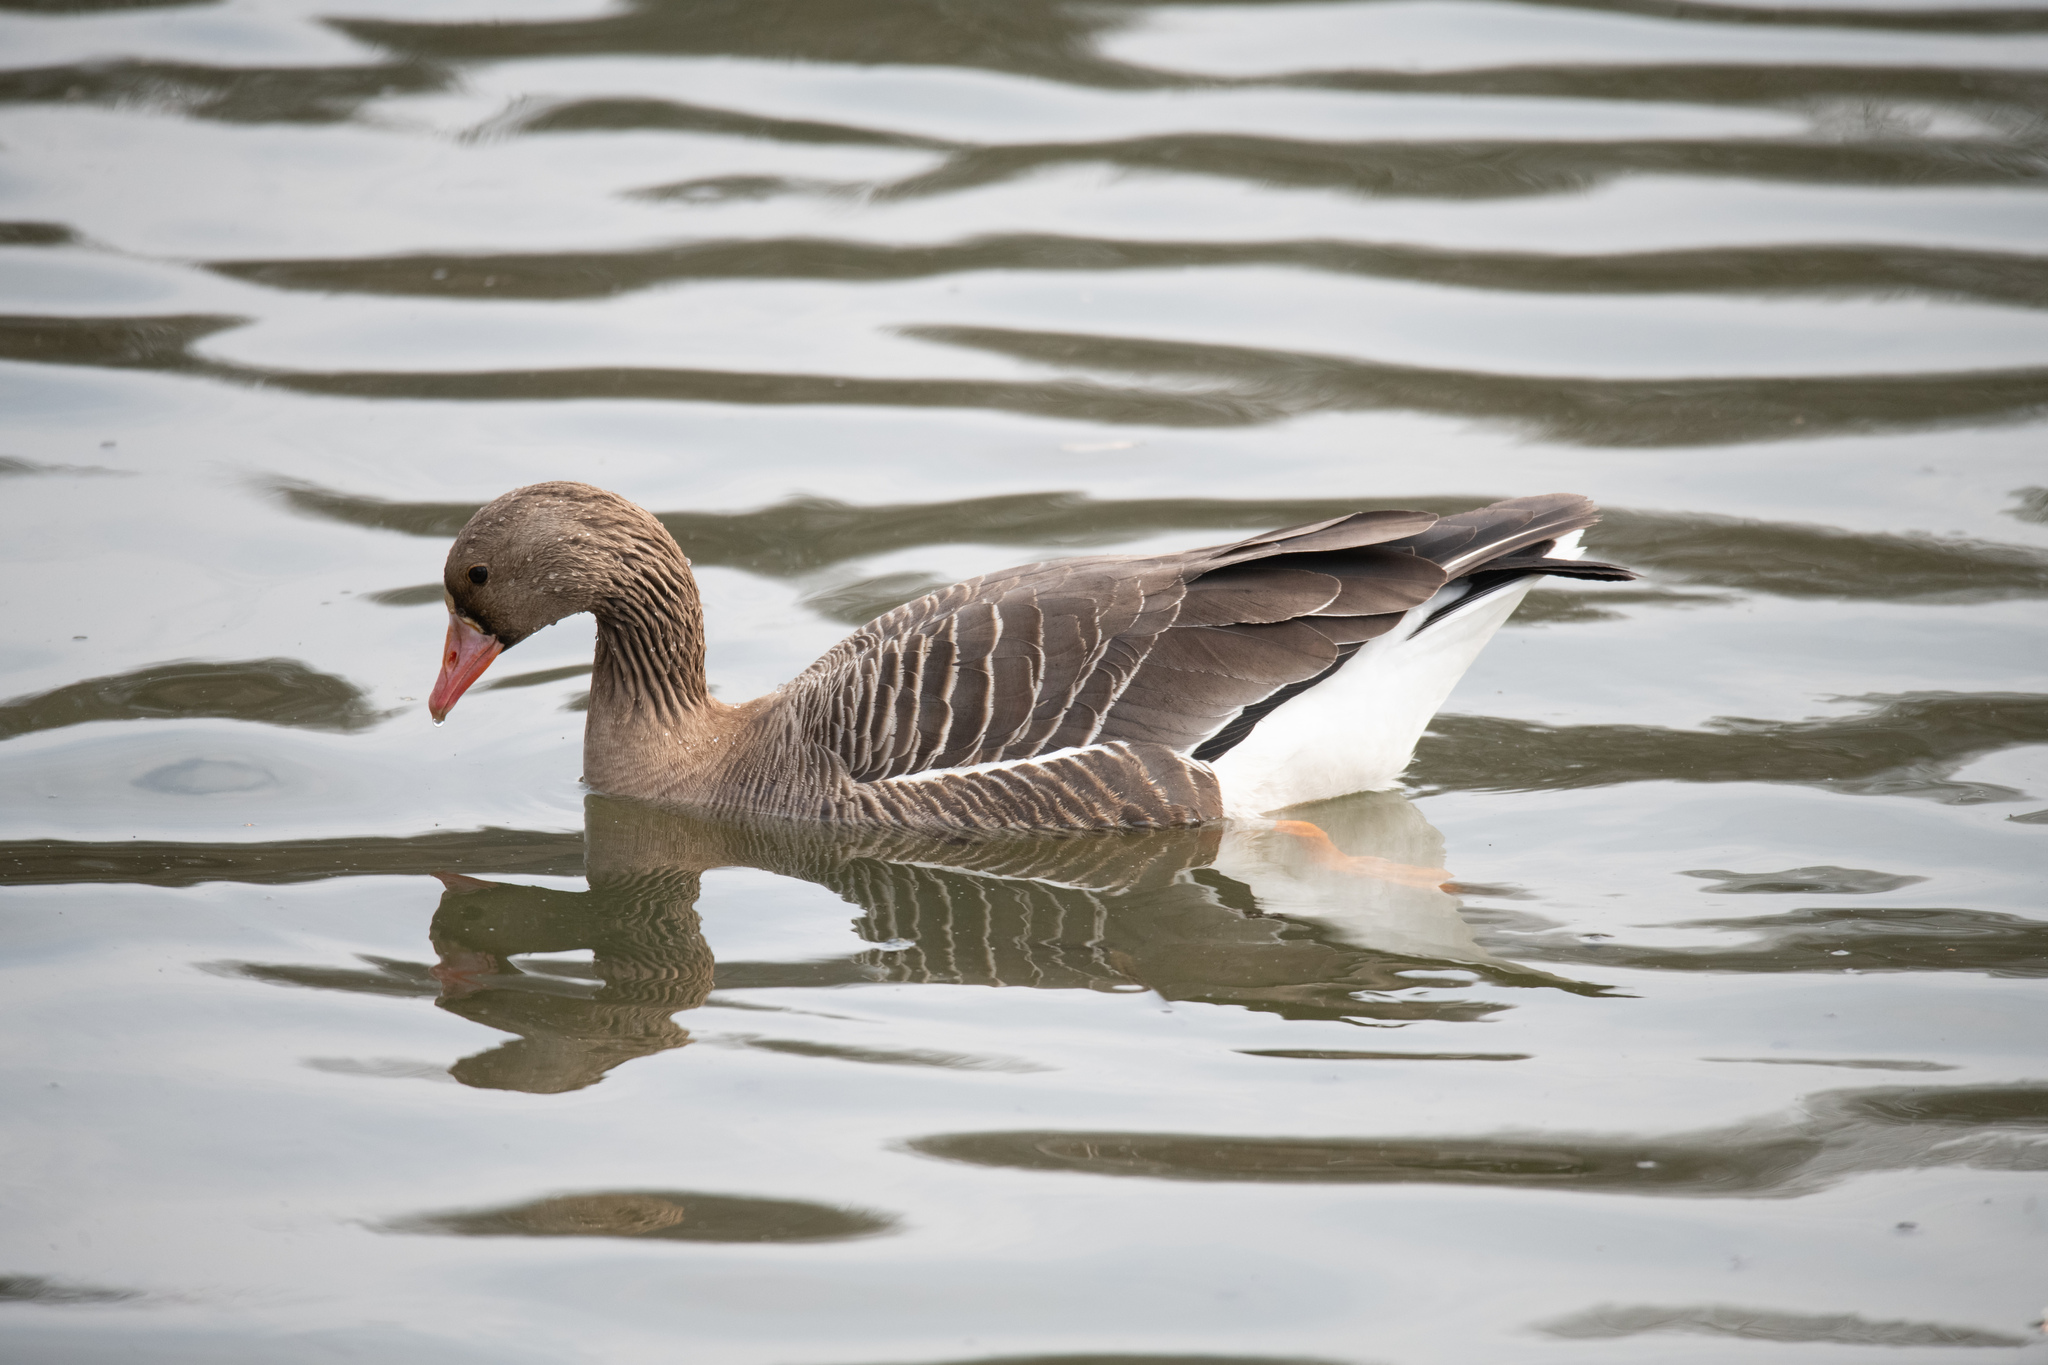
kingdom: Animalia
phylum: Chordata
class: Aves
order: Anseriformes
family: Anatidae
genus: Anser
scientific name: Anser albifrons
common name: Greater white-fronted goose
